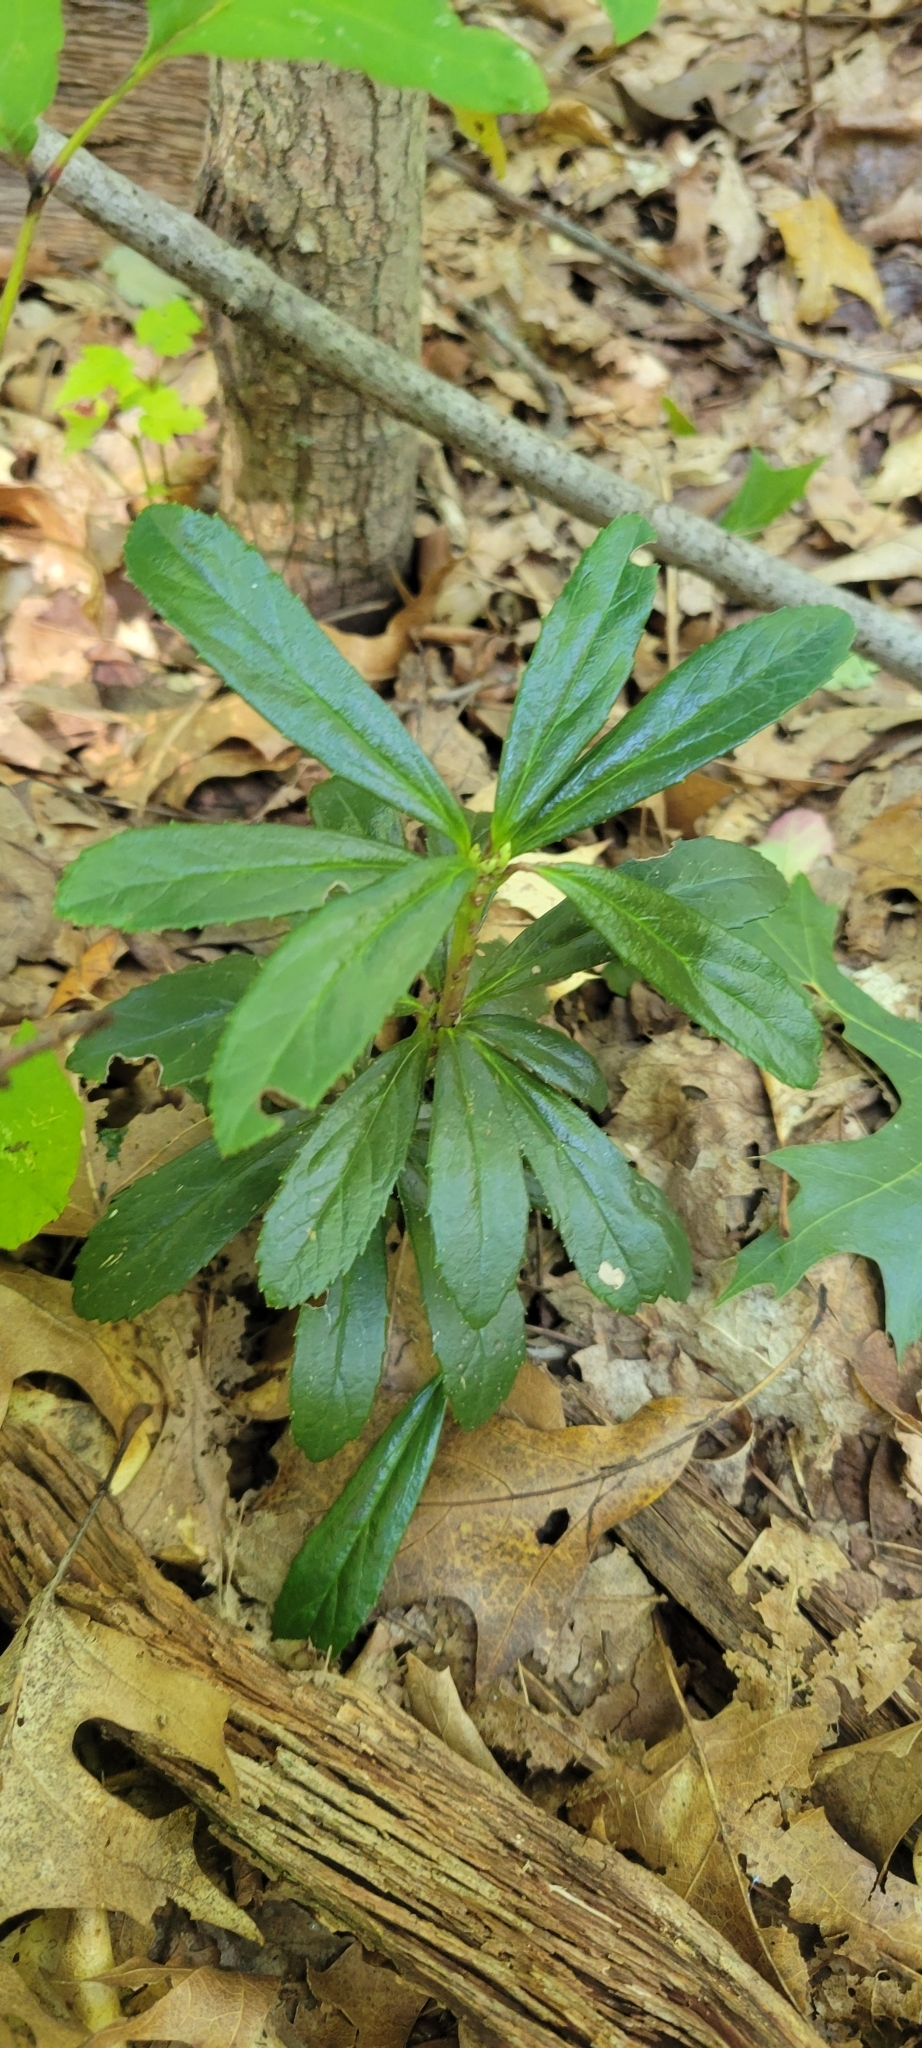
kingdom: Plantae
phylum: Tracheophyta
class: Magnoliopsida
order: Ericales
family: Ericaceae
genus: Chimaphila
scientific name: Chimaphila umbellata
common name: Pipsissewa
